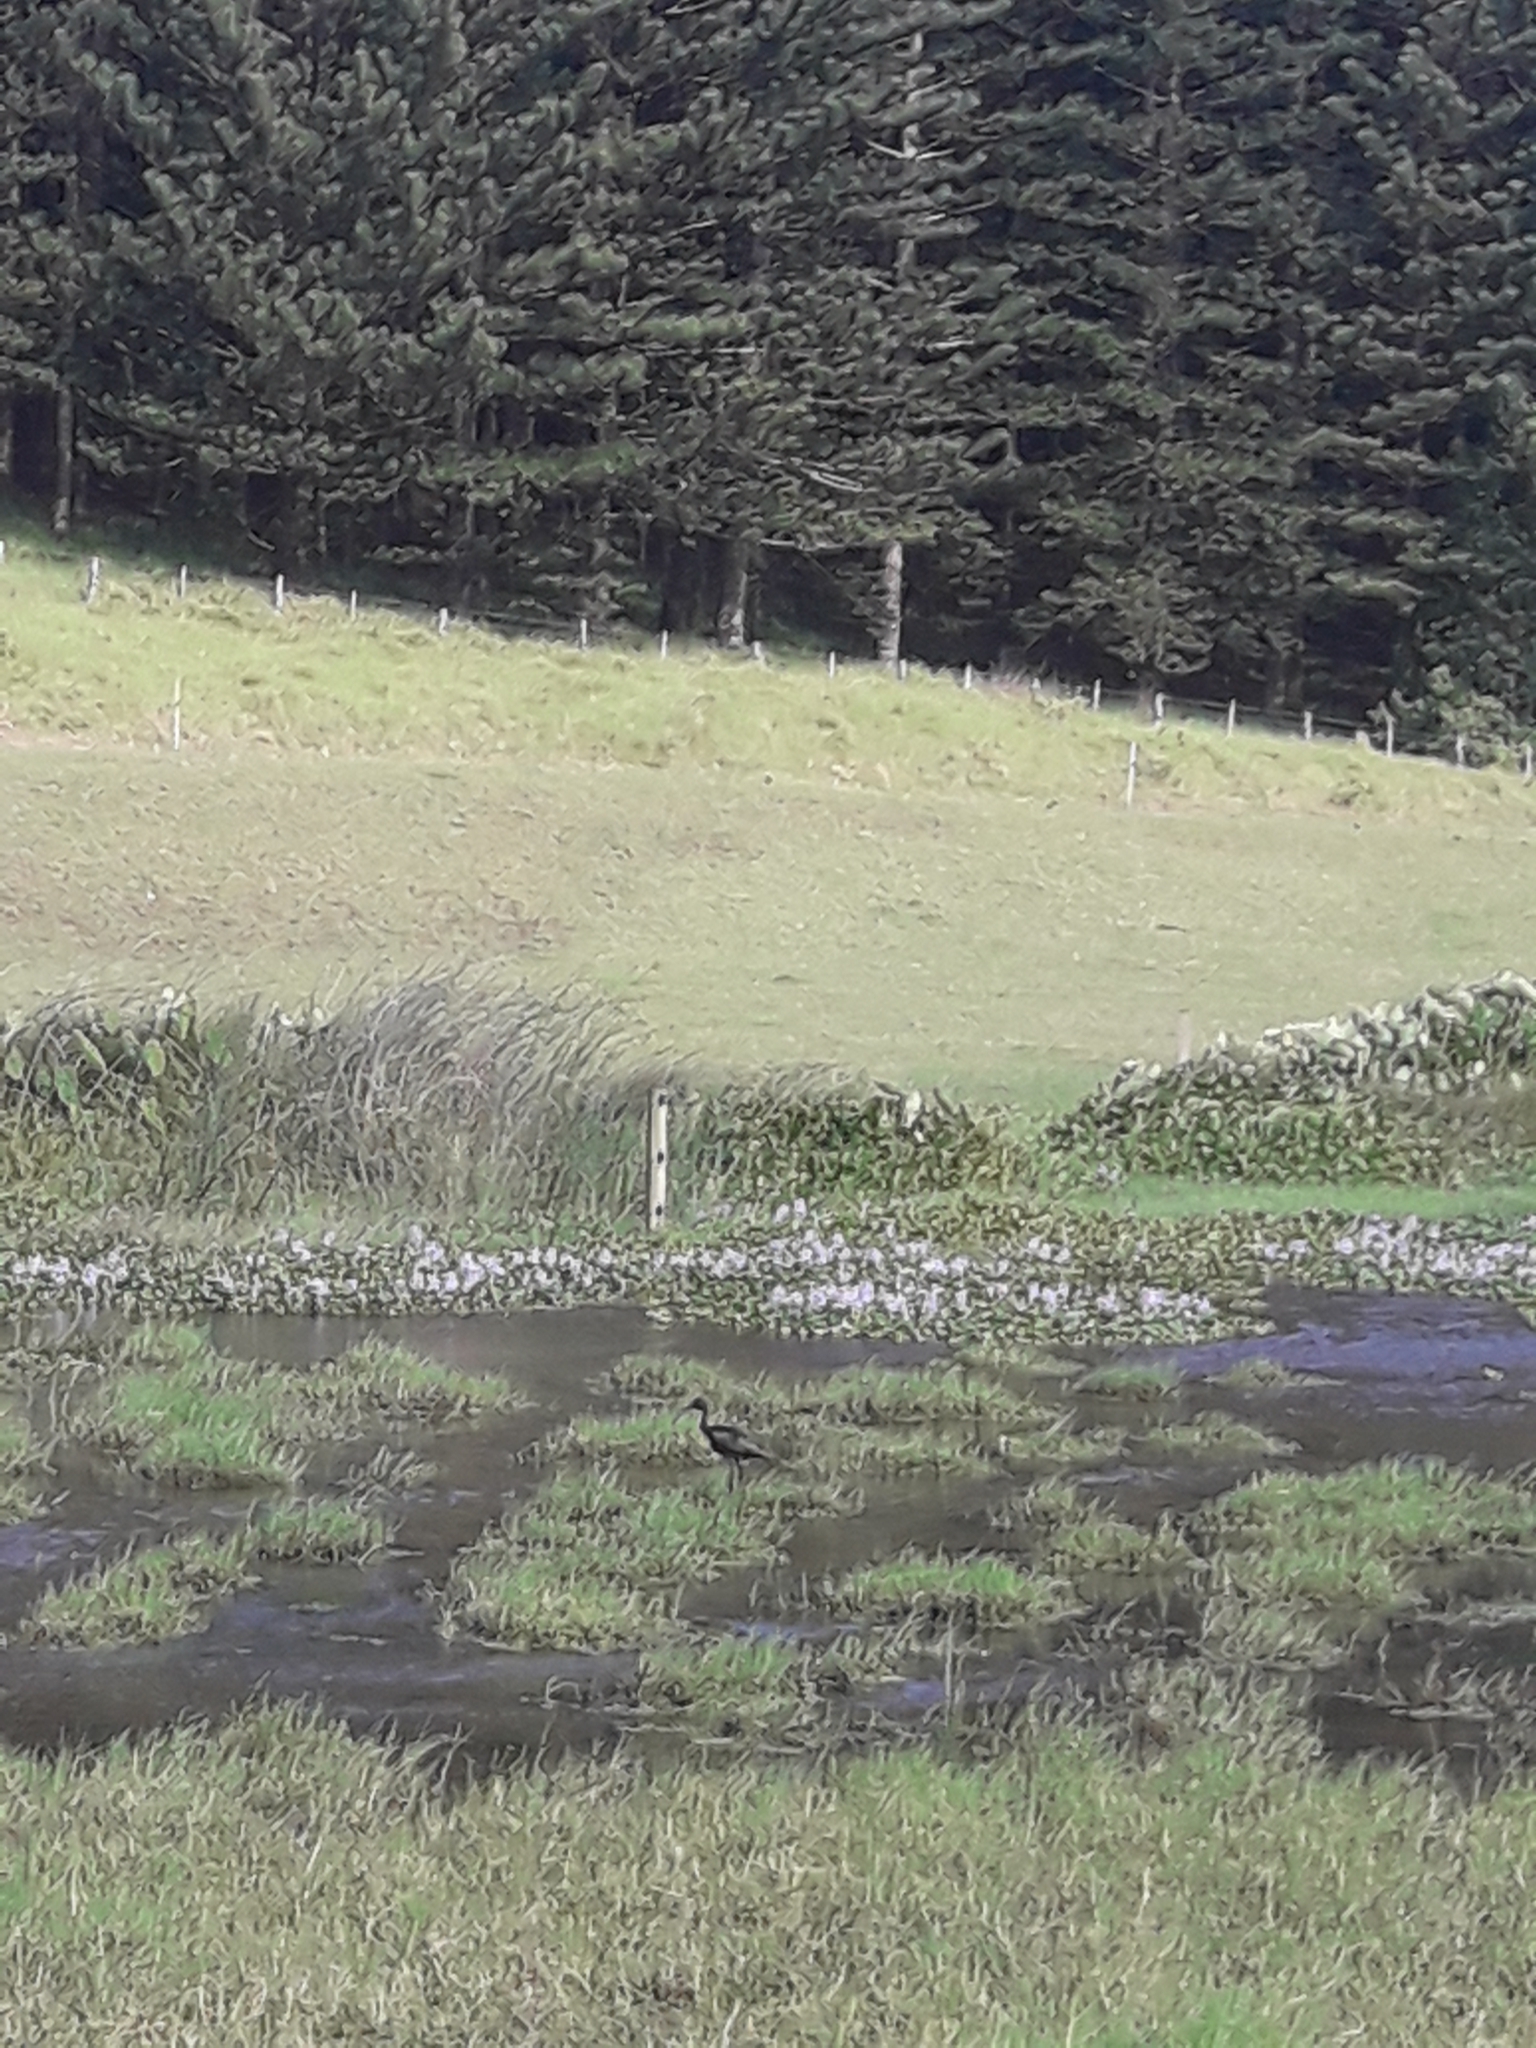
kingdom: Animalia
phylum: Chordata
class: Aves
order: Pelecaniformes
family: Threskiornithidae
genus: Plegadis
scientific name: Plegadis falcinellus
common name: Glossy ibis
